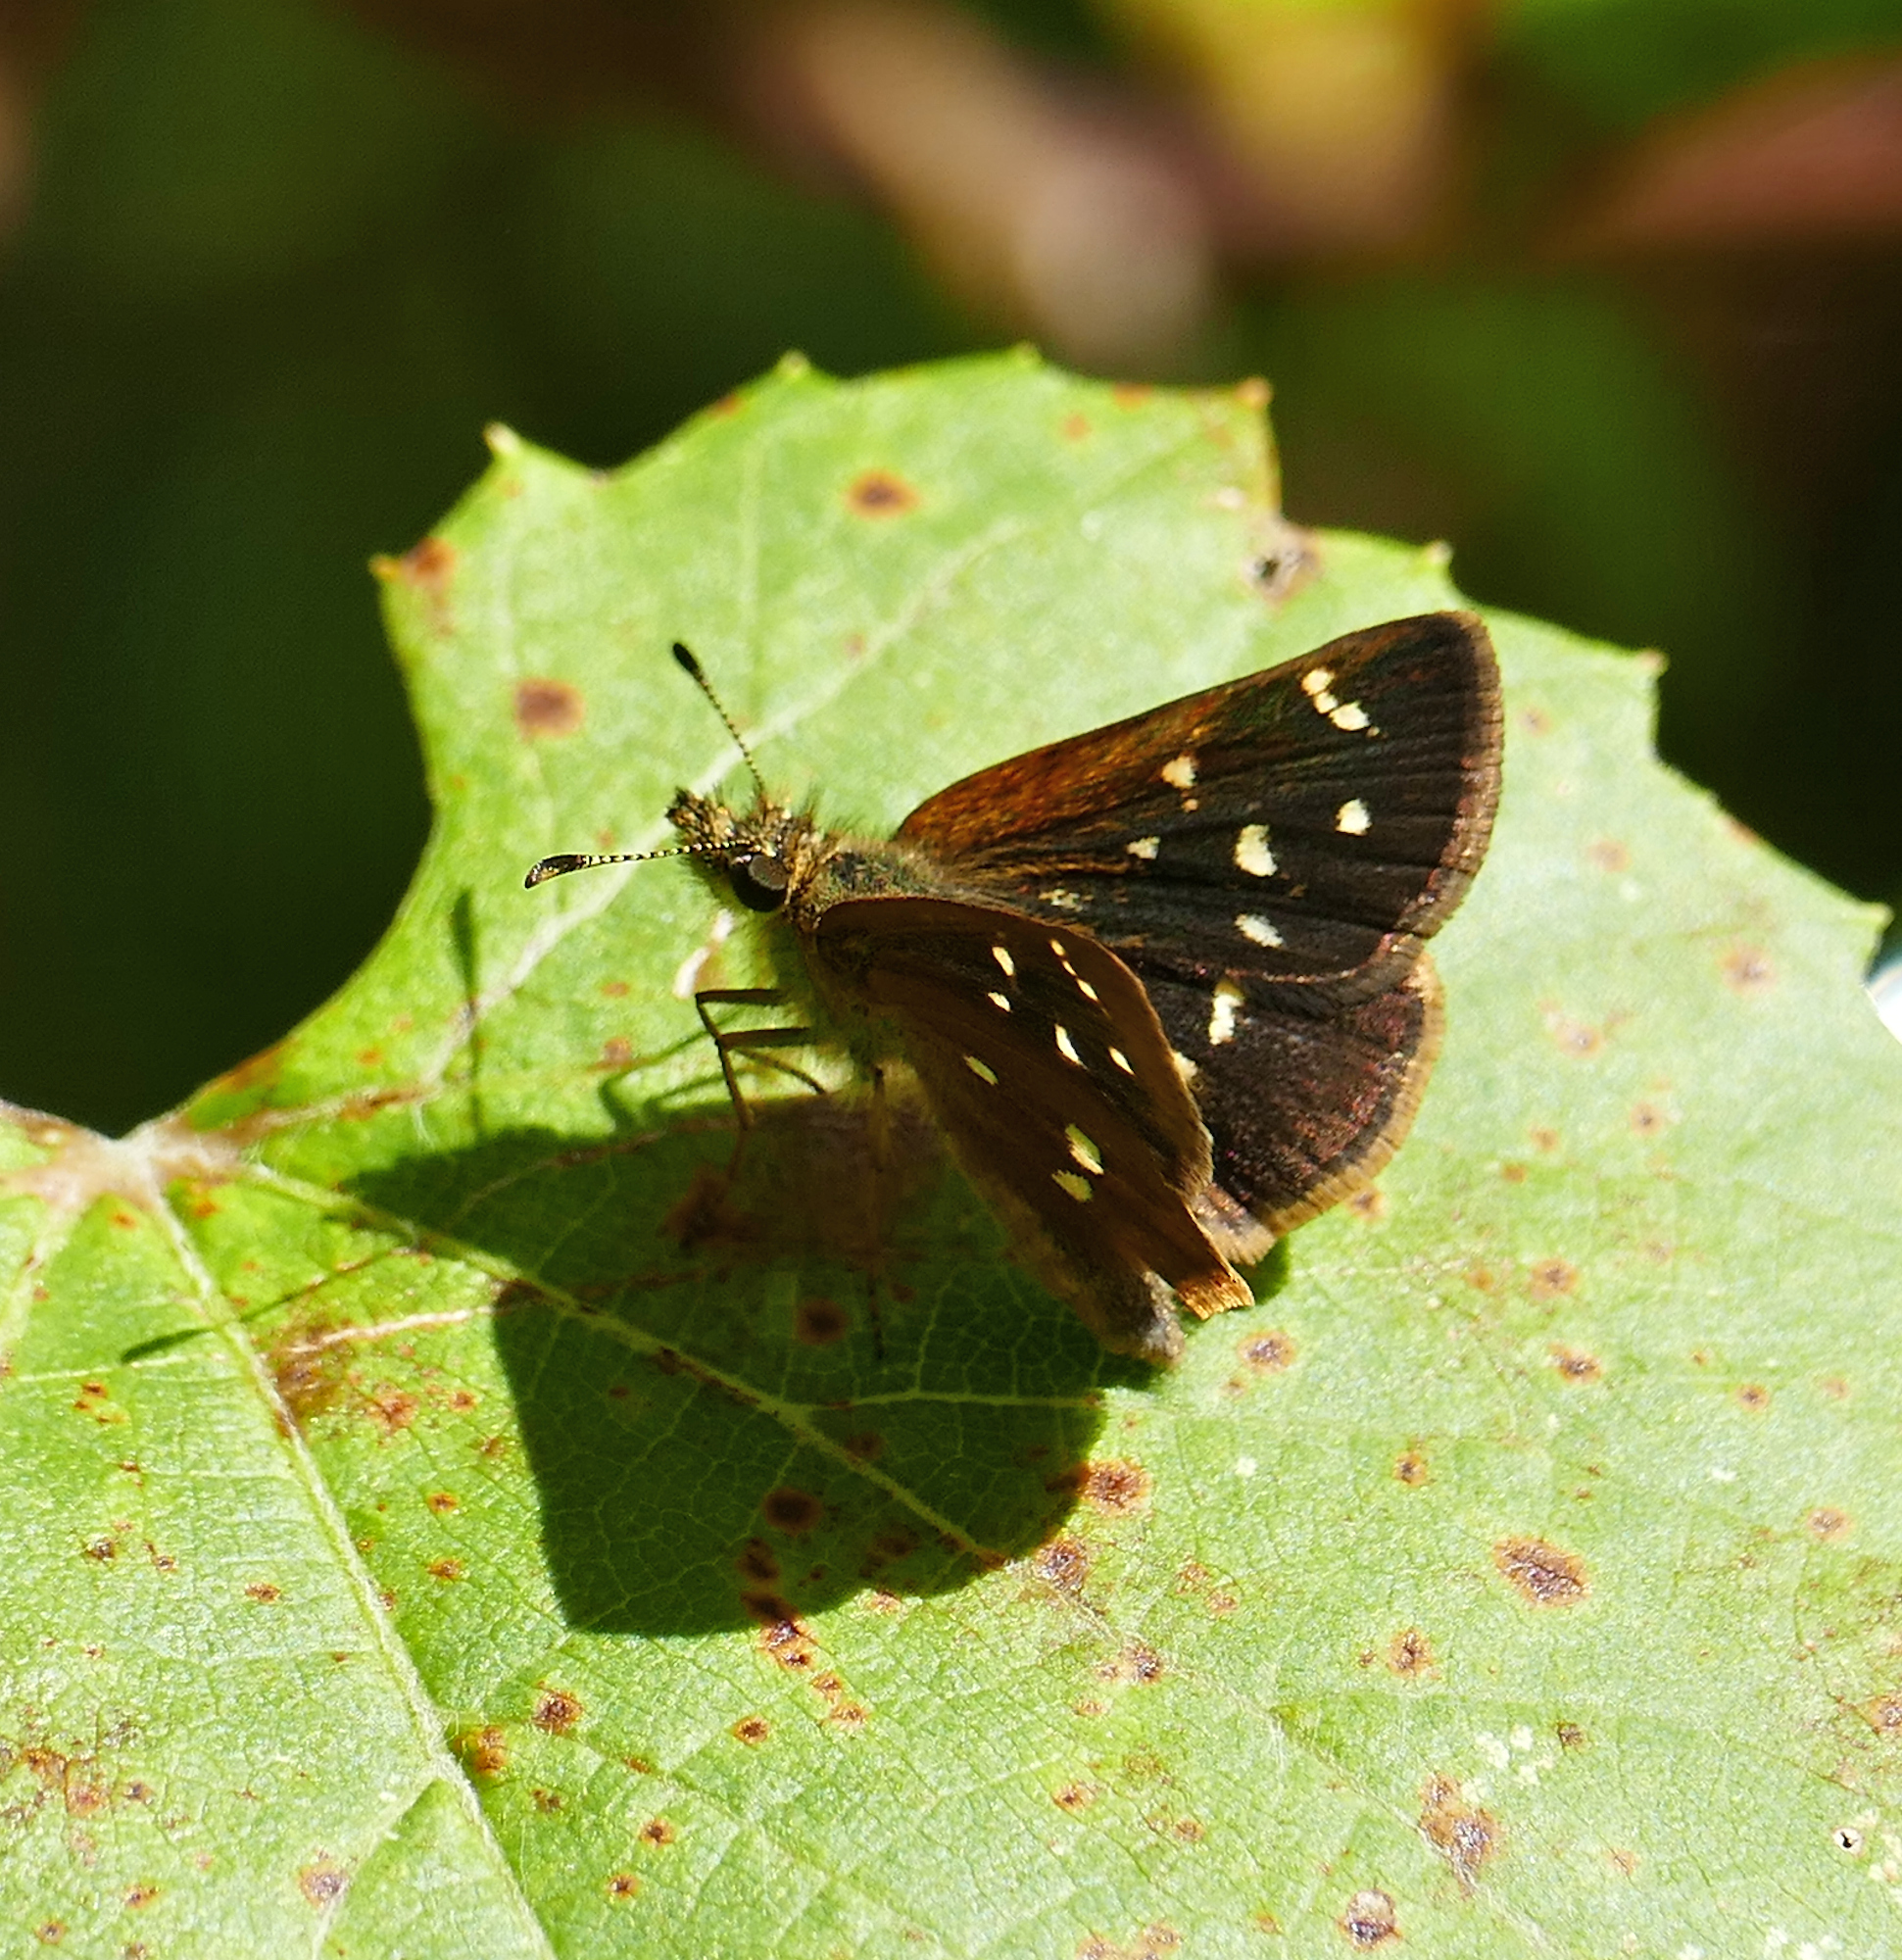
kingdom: Animalia
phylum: Arthropoda
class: Insecta
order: Lepidoptera
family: Hesperiidae
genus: Piruna
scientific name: Piruna polingii
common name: Four-spotted skipperling
